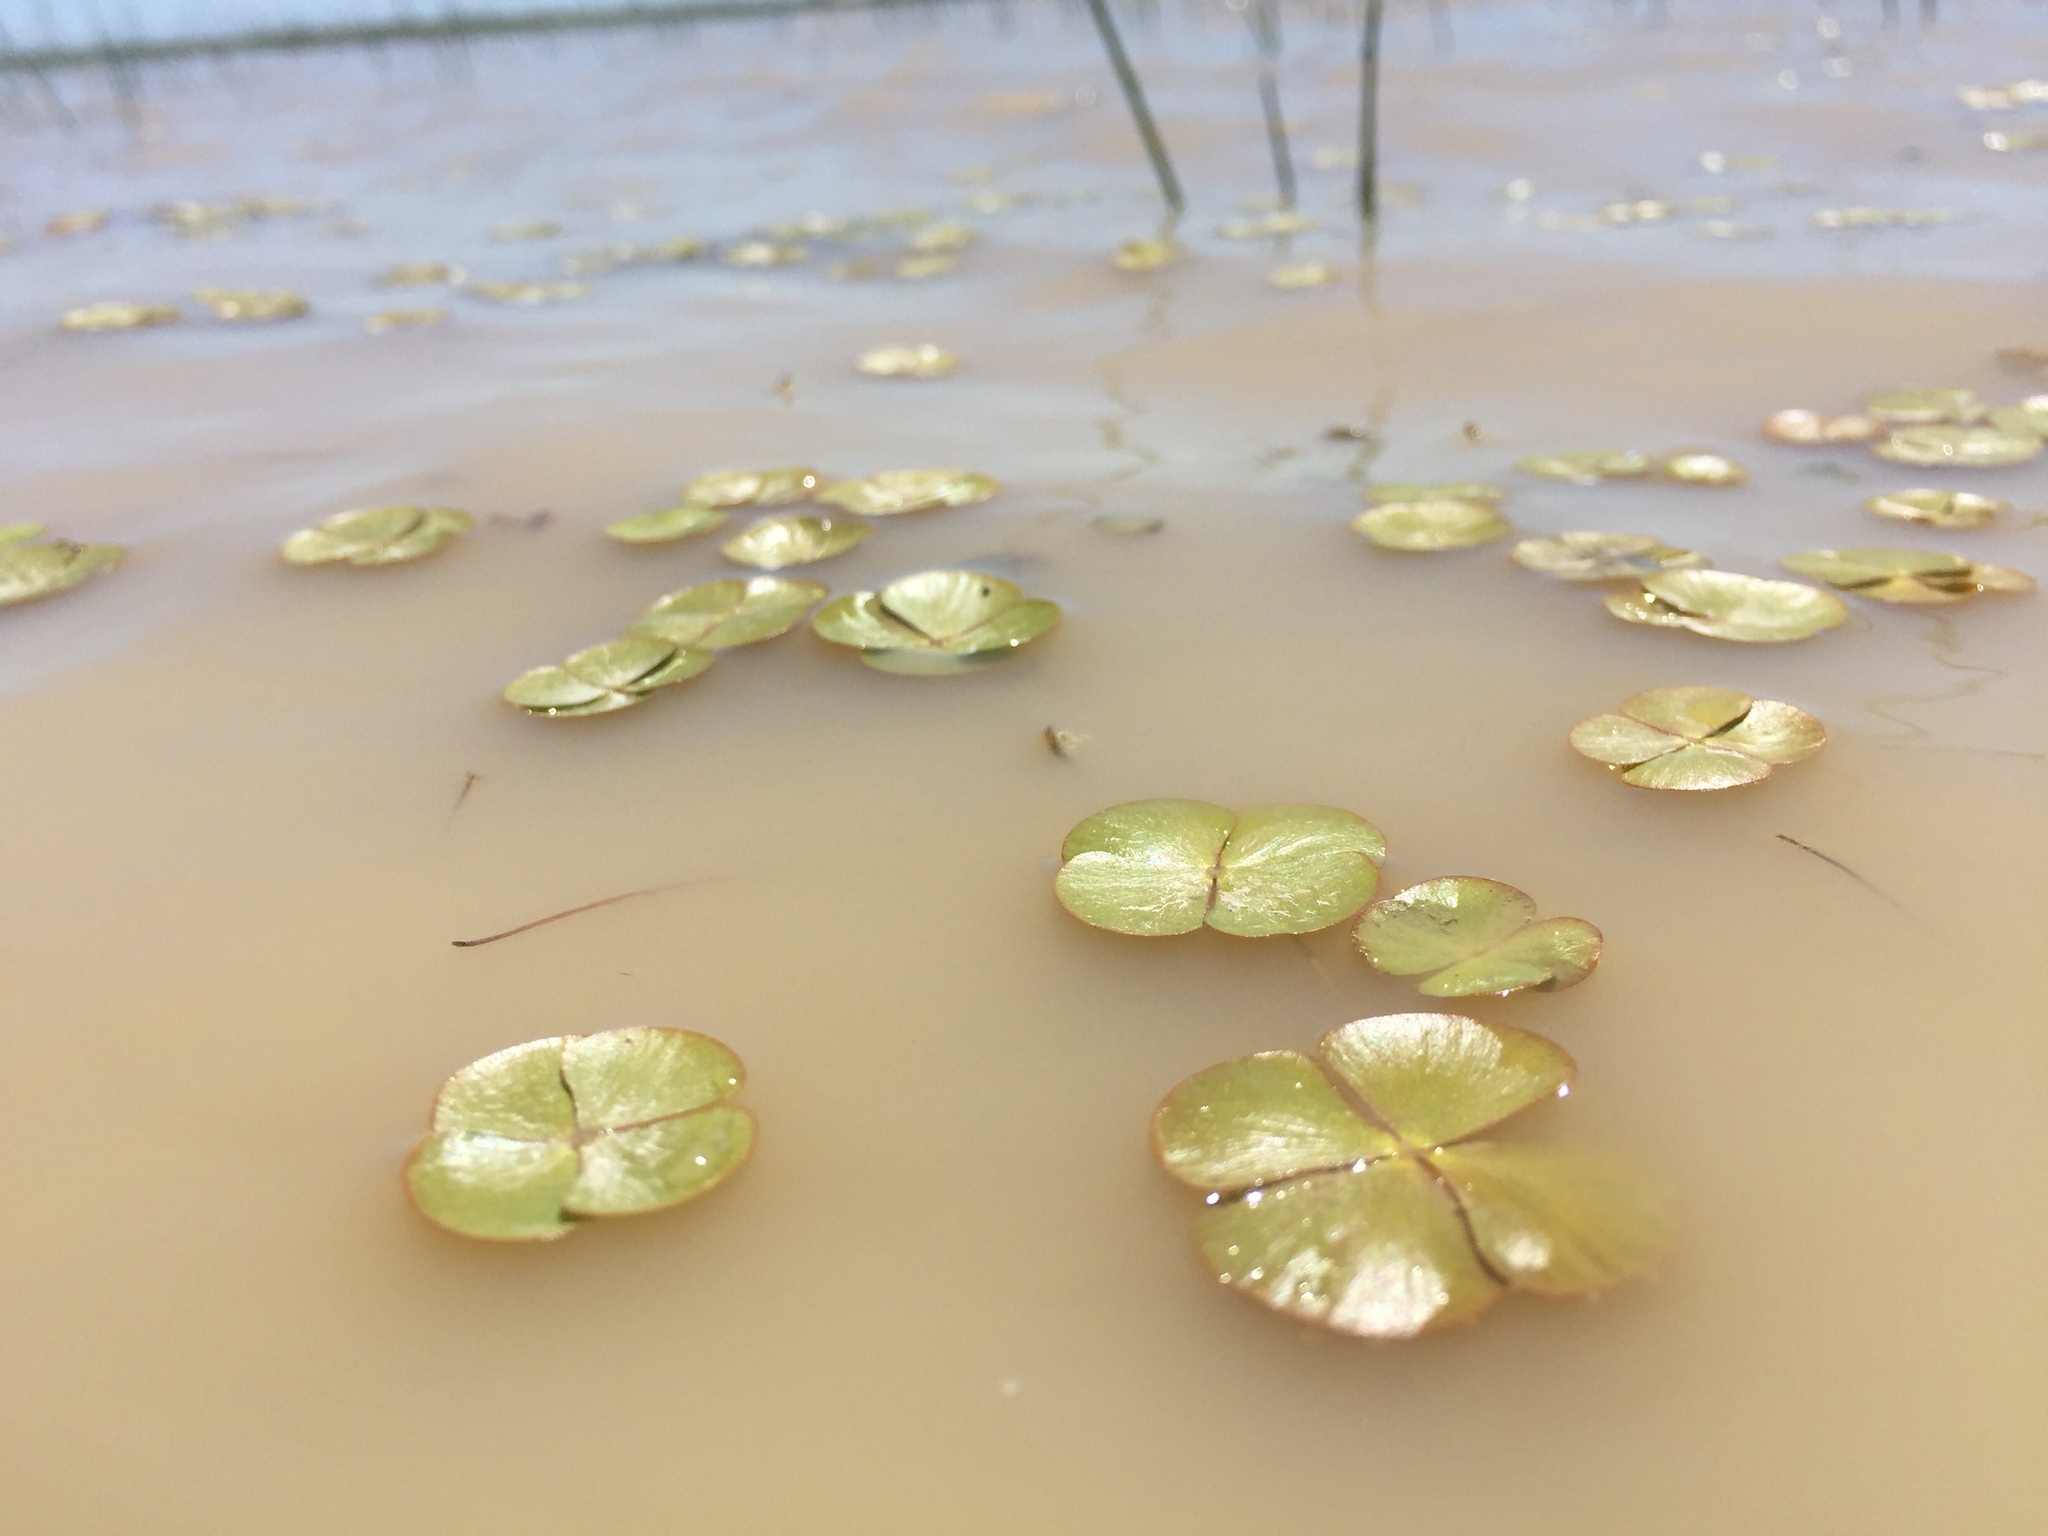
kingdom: Plantae
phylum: Tracheophyta
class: Polypodiopsida
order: Salviniales
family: Marsileaceae
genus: Marsilea
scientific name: Marsilea vestita
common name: Hooked-pepperwort
